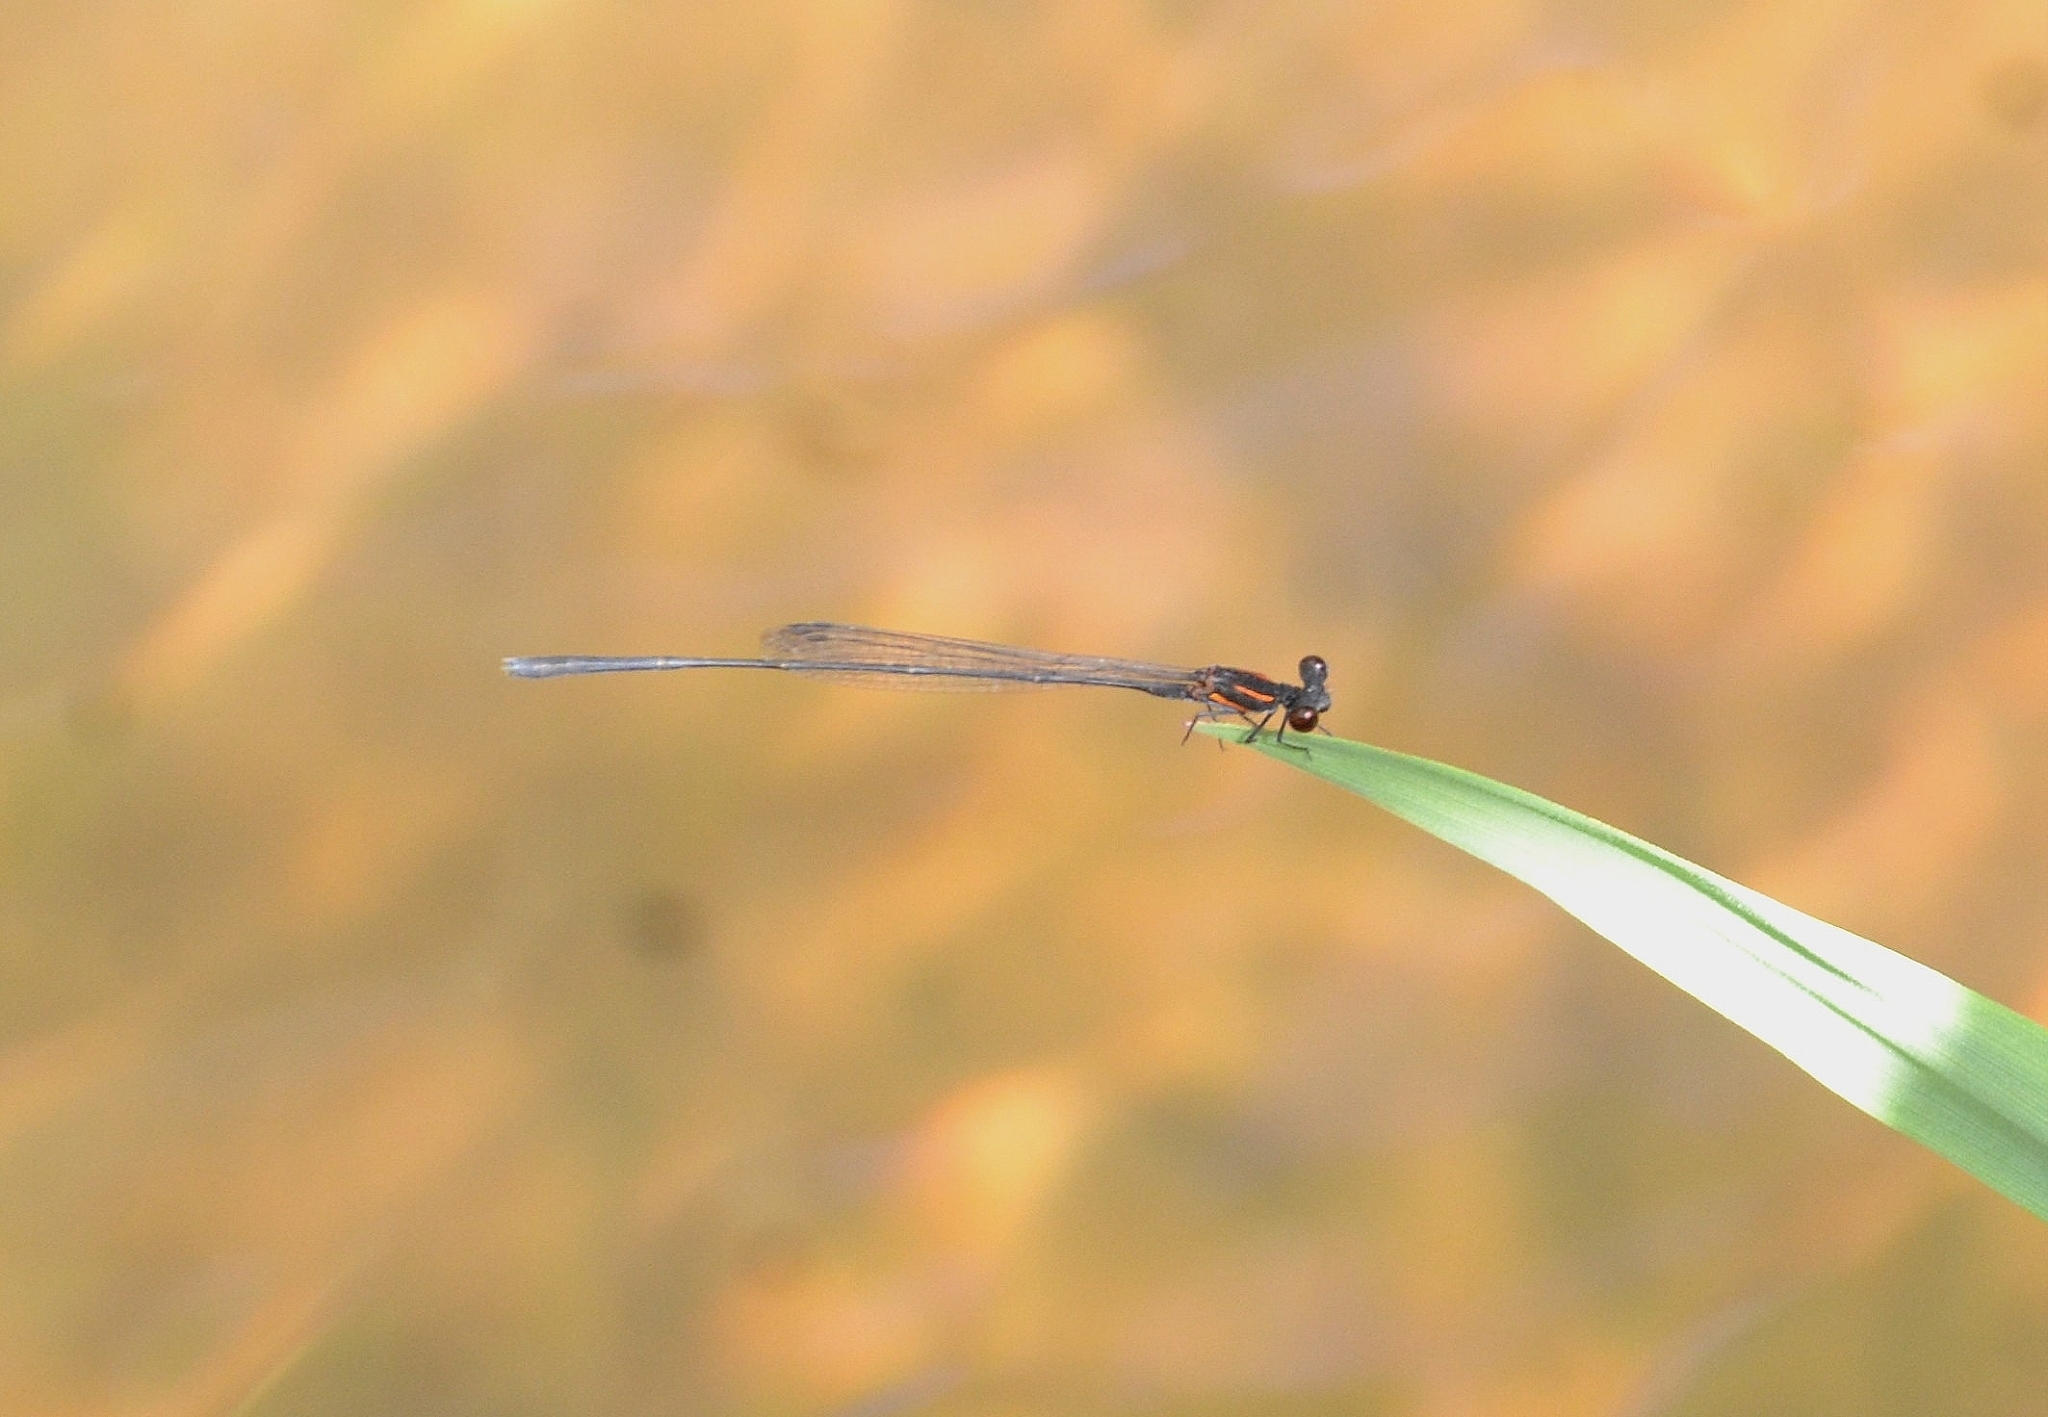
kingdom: Animalia
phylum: Arthropoda
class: Insecta
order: Odonata
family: Platycnemididae
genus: Prodasineura
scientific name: Prodasineura verticalis
